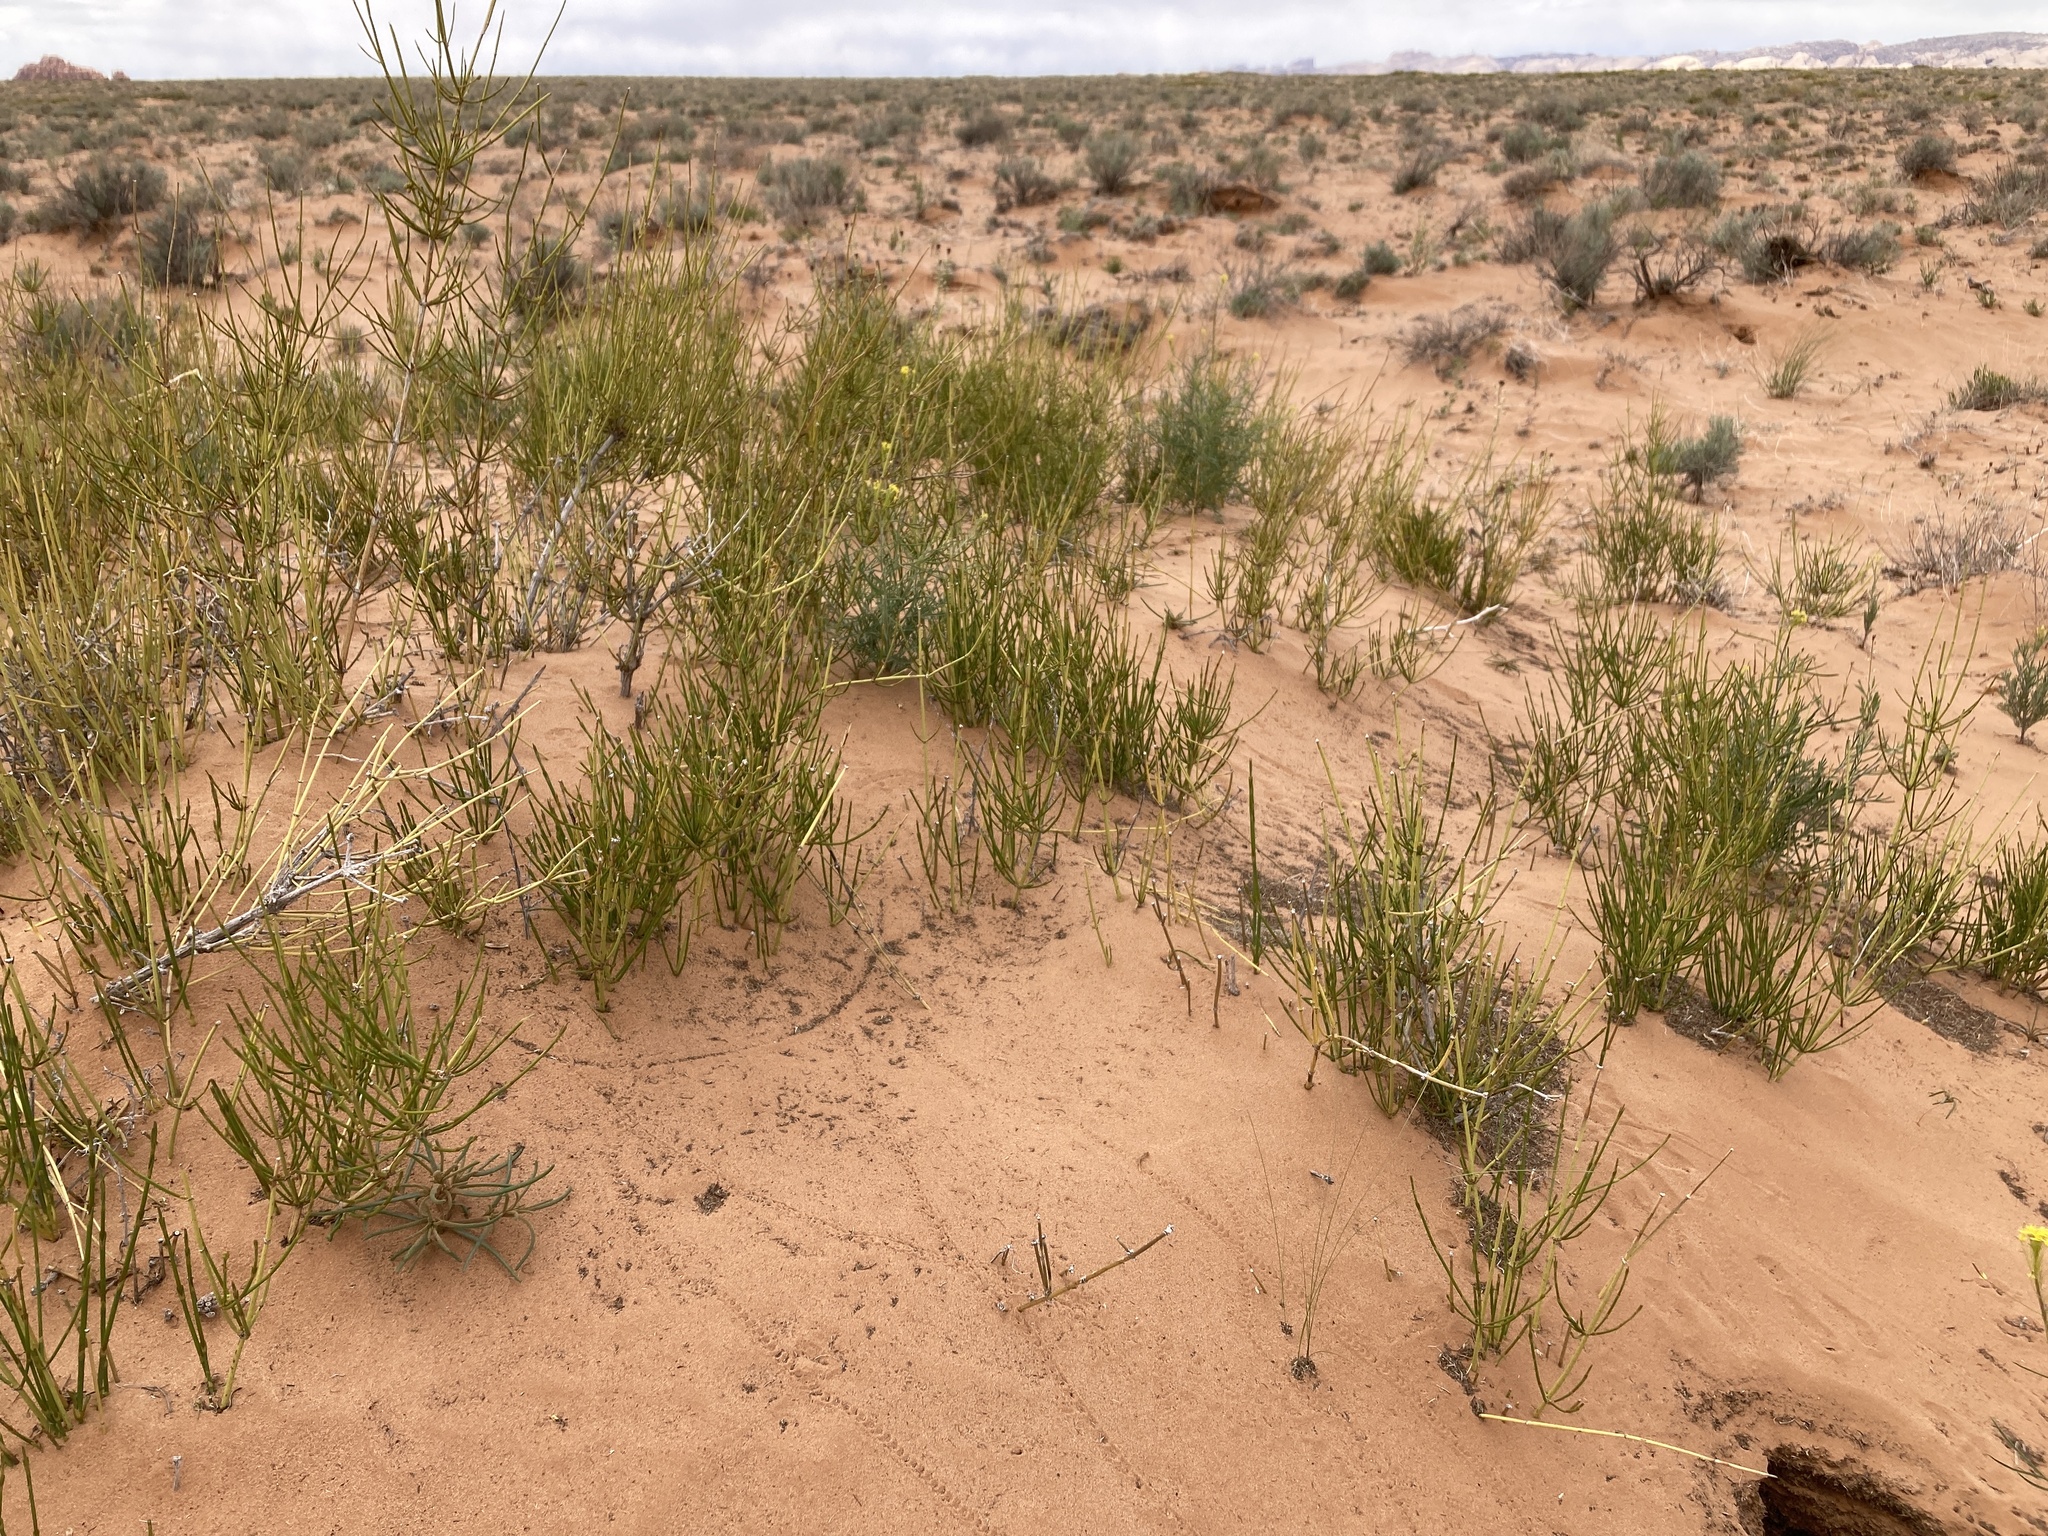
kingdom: Plantae
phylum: Tracheophyta
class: Gnetopsida
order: Ephedrales
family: Ephedraceae
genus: Ephedra
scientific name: Ephedra cutleri
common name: Cutler morning-tea
